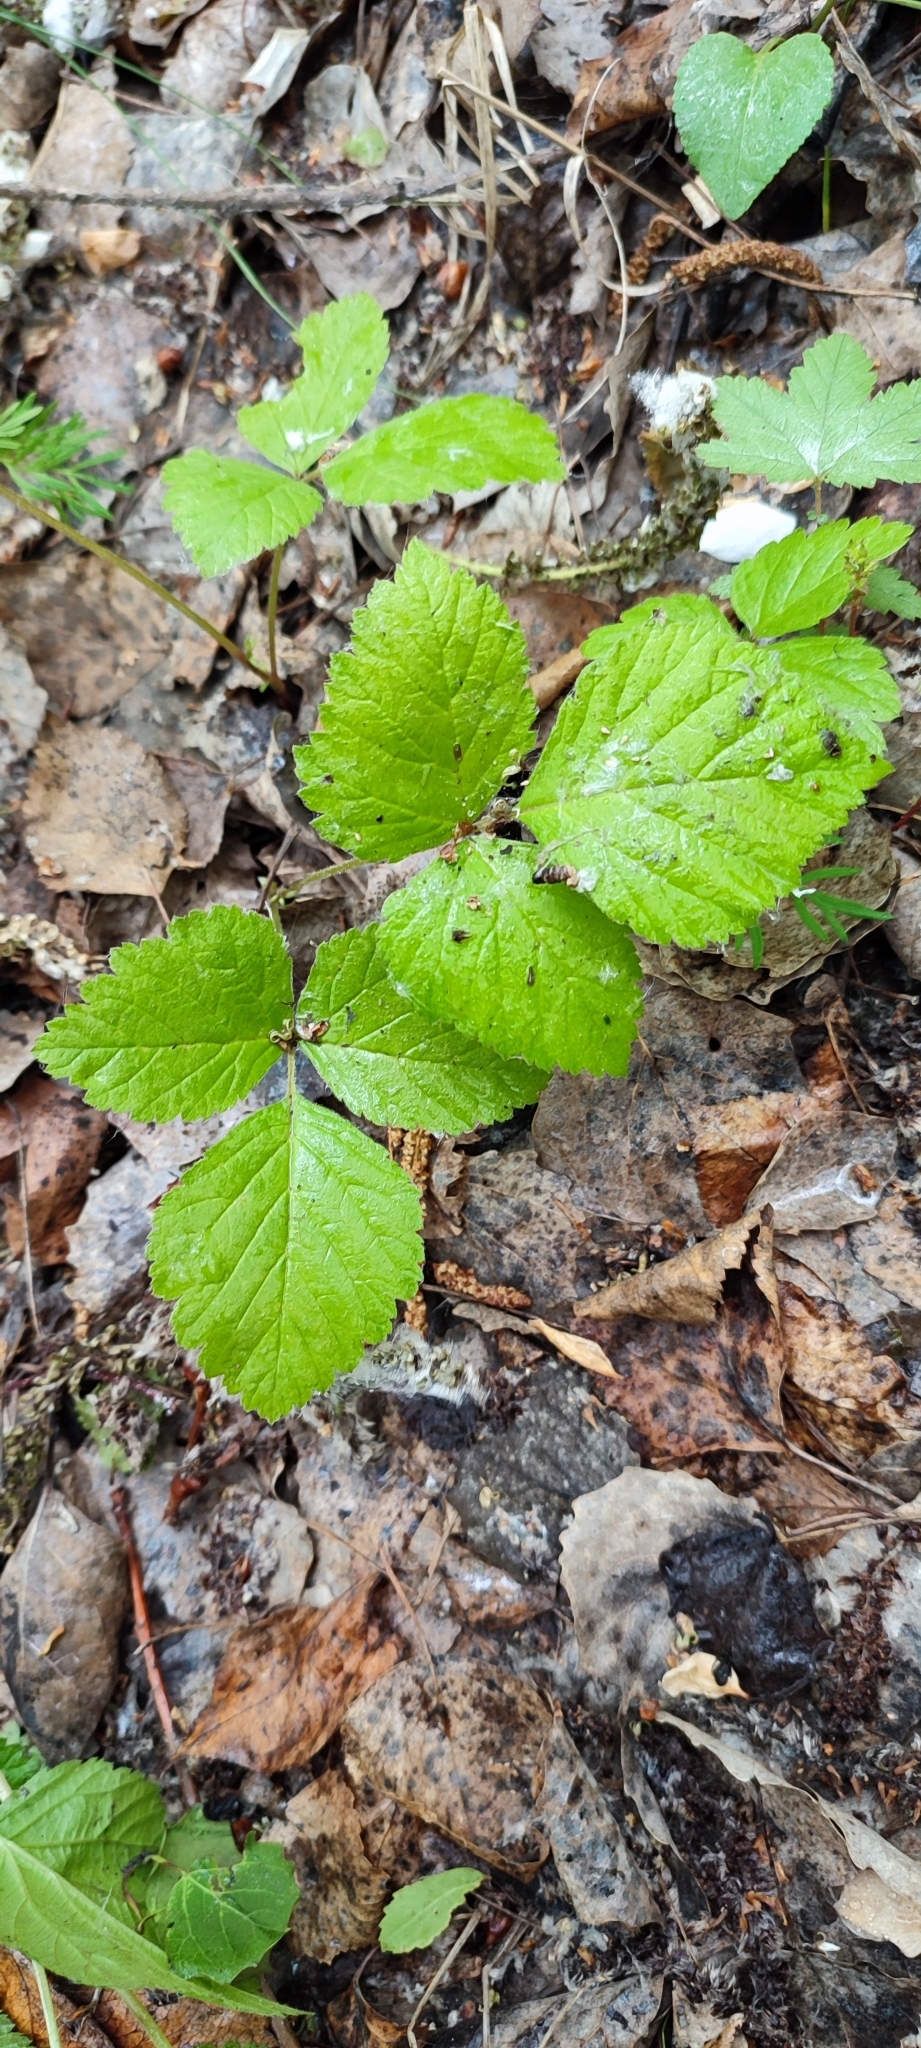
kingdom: Plantae
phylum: Tracheophyta
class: Magnoliopsida
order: Rosales
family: Rosaceae
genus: Rubus
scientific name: Rubus saxatilis
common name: Stone bramble
